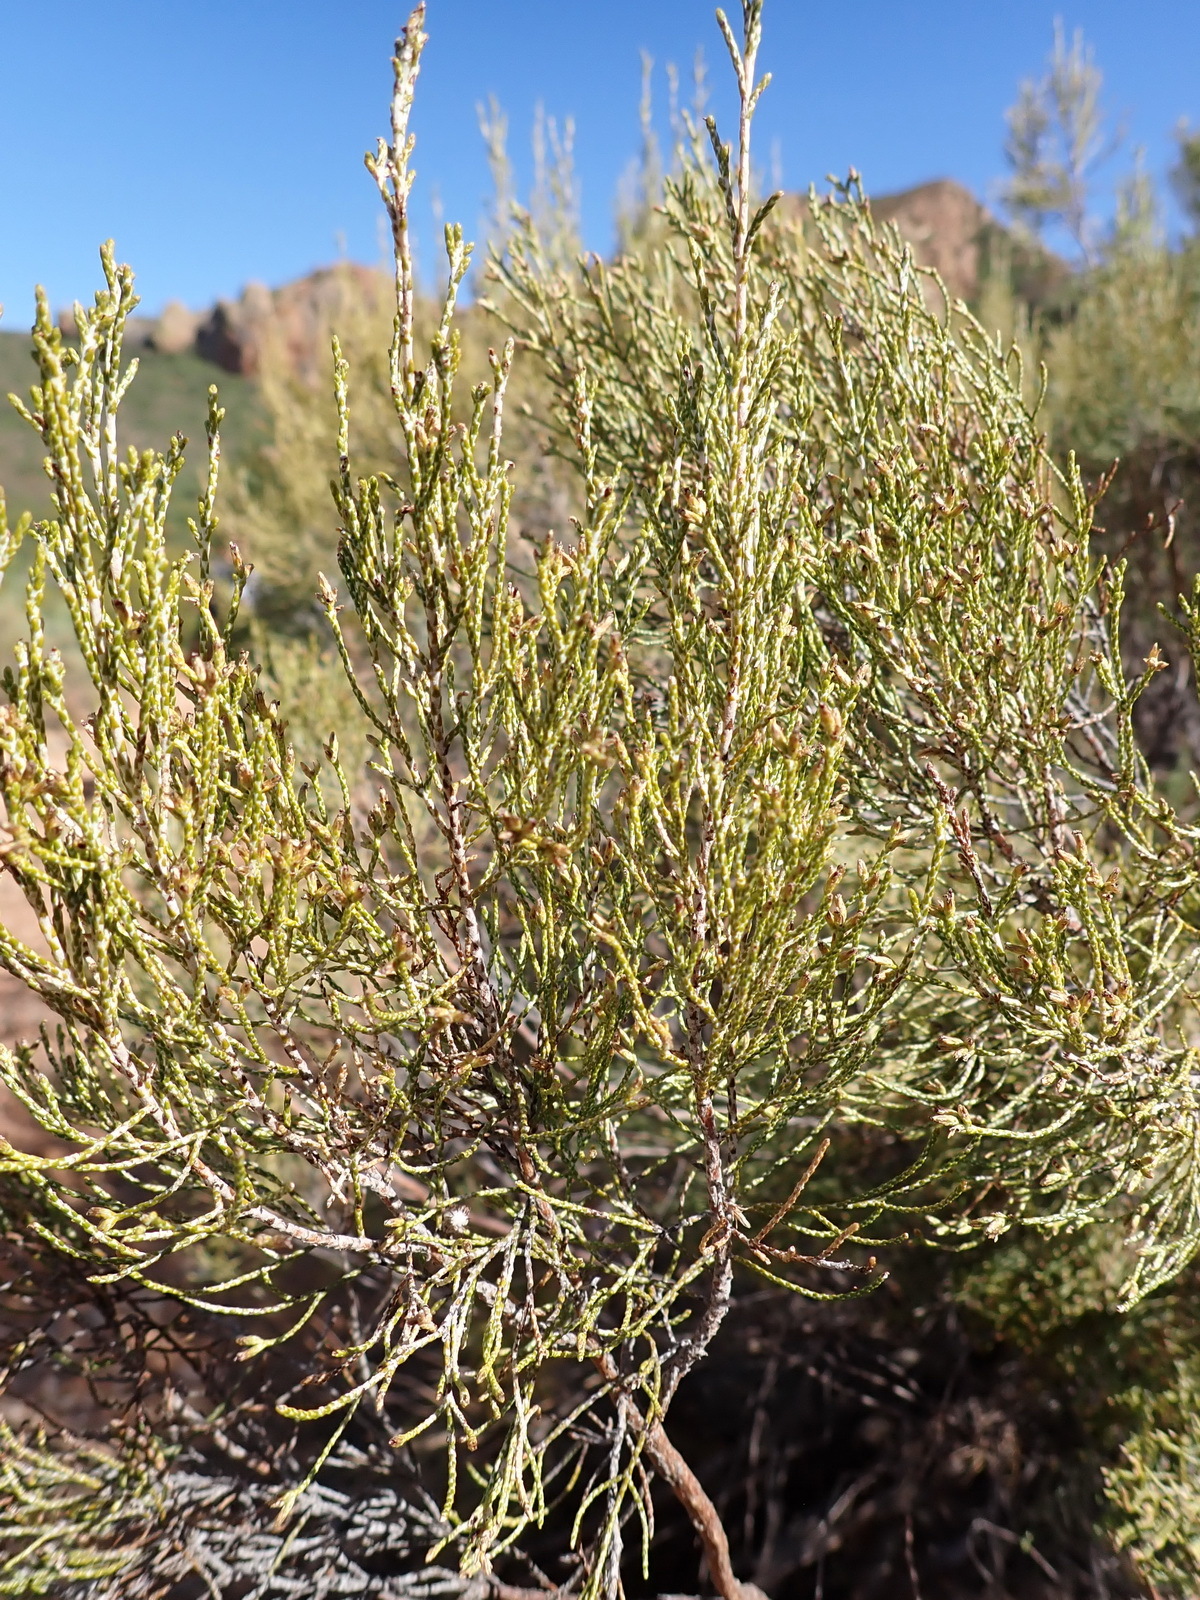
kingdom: Plantae
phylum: Tracheophyta
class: Magnoliopsida
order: Asterales
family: Asteraceae
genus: Dicerothamnus
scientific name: Dicerothamnus rhinocerotis
